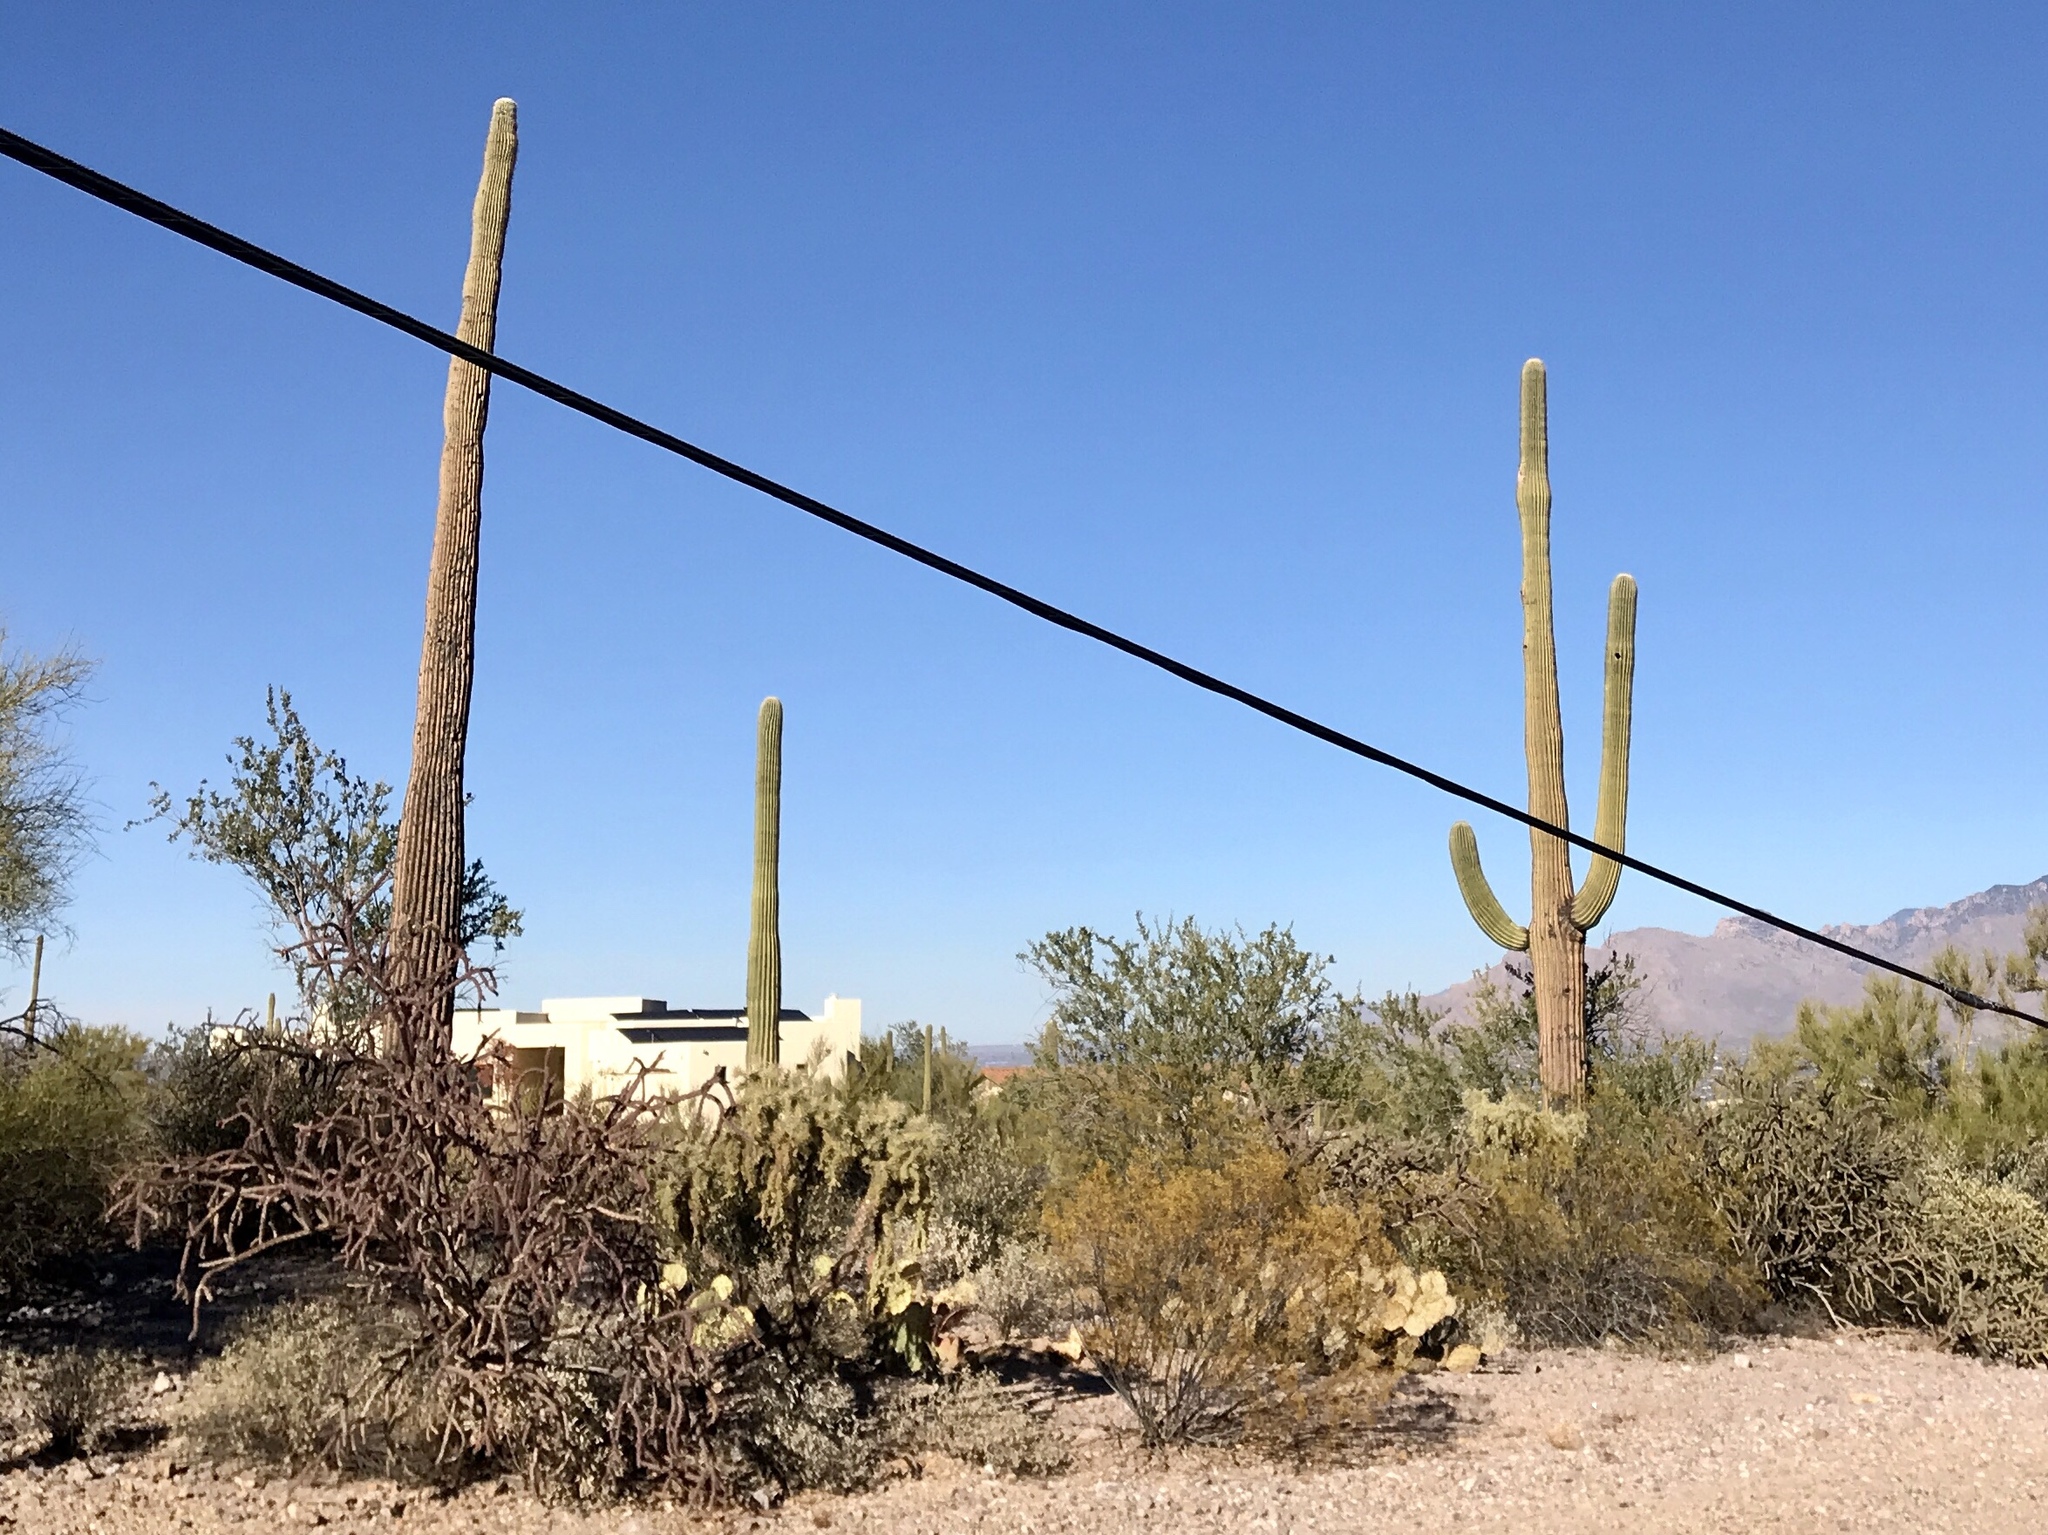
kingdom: Plantae
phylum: Tracheophyta
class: Magnoliopsida
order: Caryophyllales
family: Cactaceae
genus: Carnegiea
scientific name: Carnegiea gigantea
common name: Saguaro
